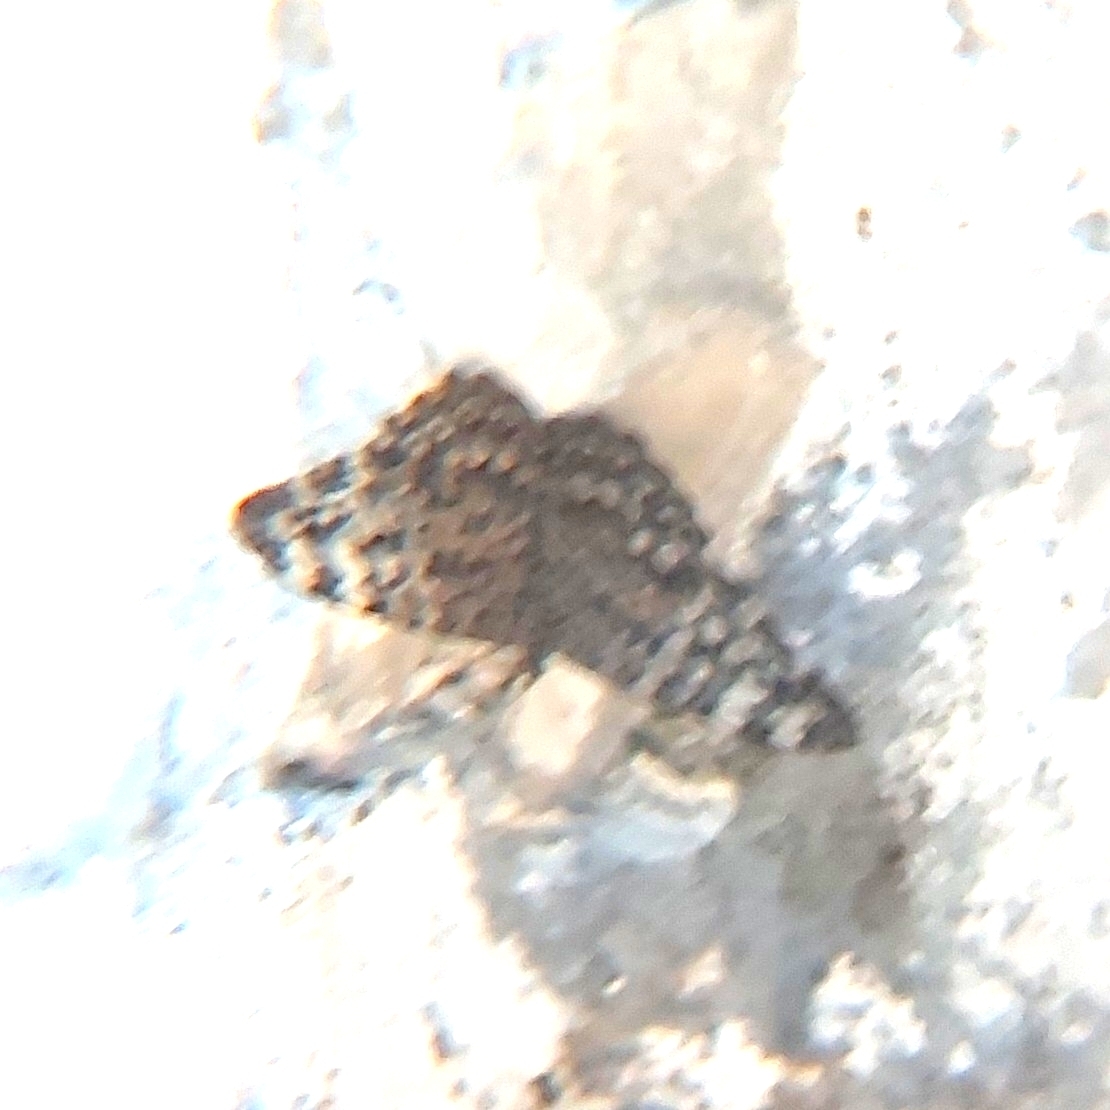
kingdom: Animalia
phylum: Arthropoda
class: Insecta
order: Lepidoptera
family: Nymphalidae
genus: Hamadryas
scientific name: Hamadryas februa
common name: Gray cracker
